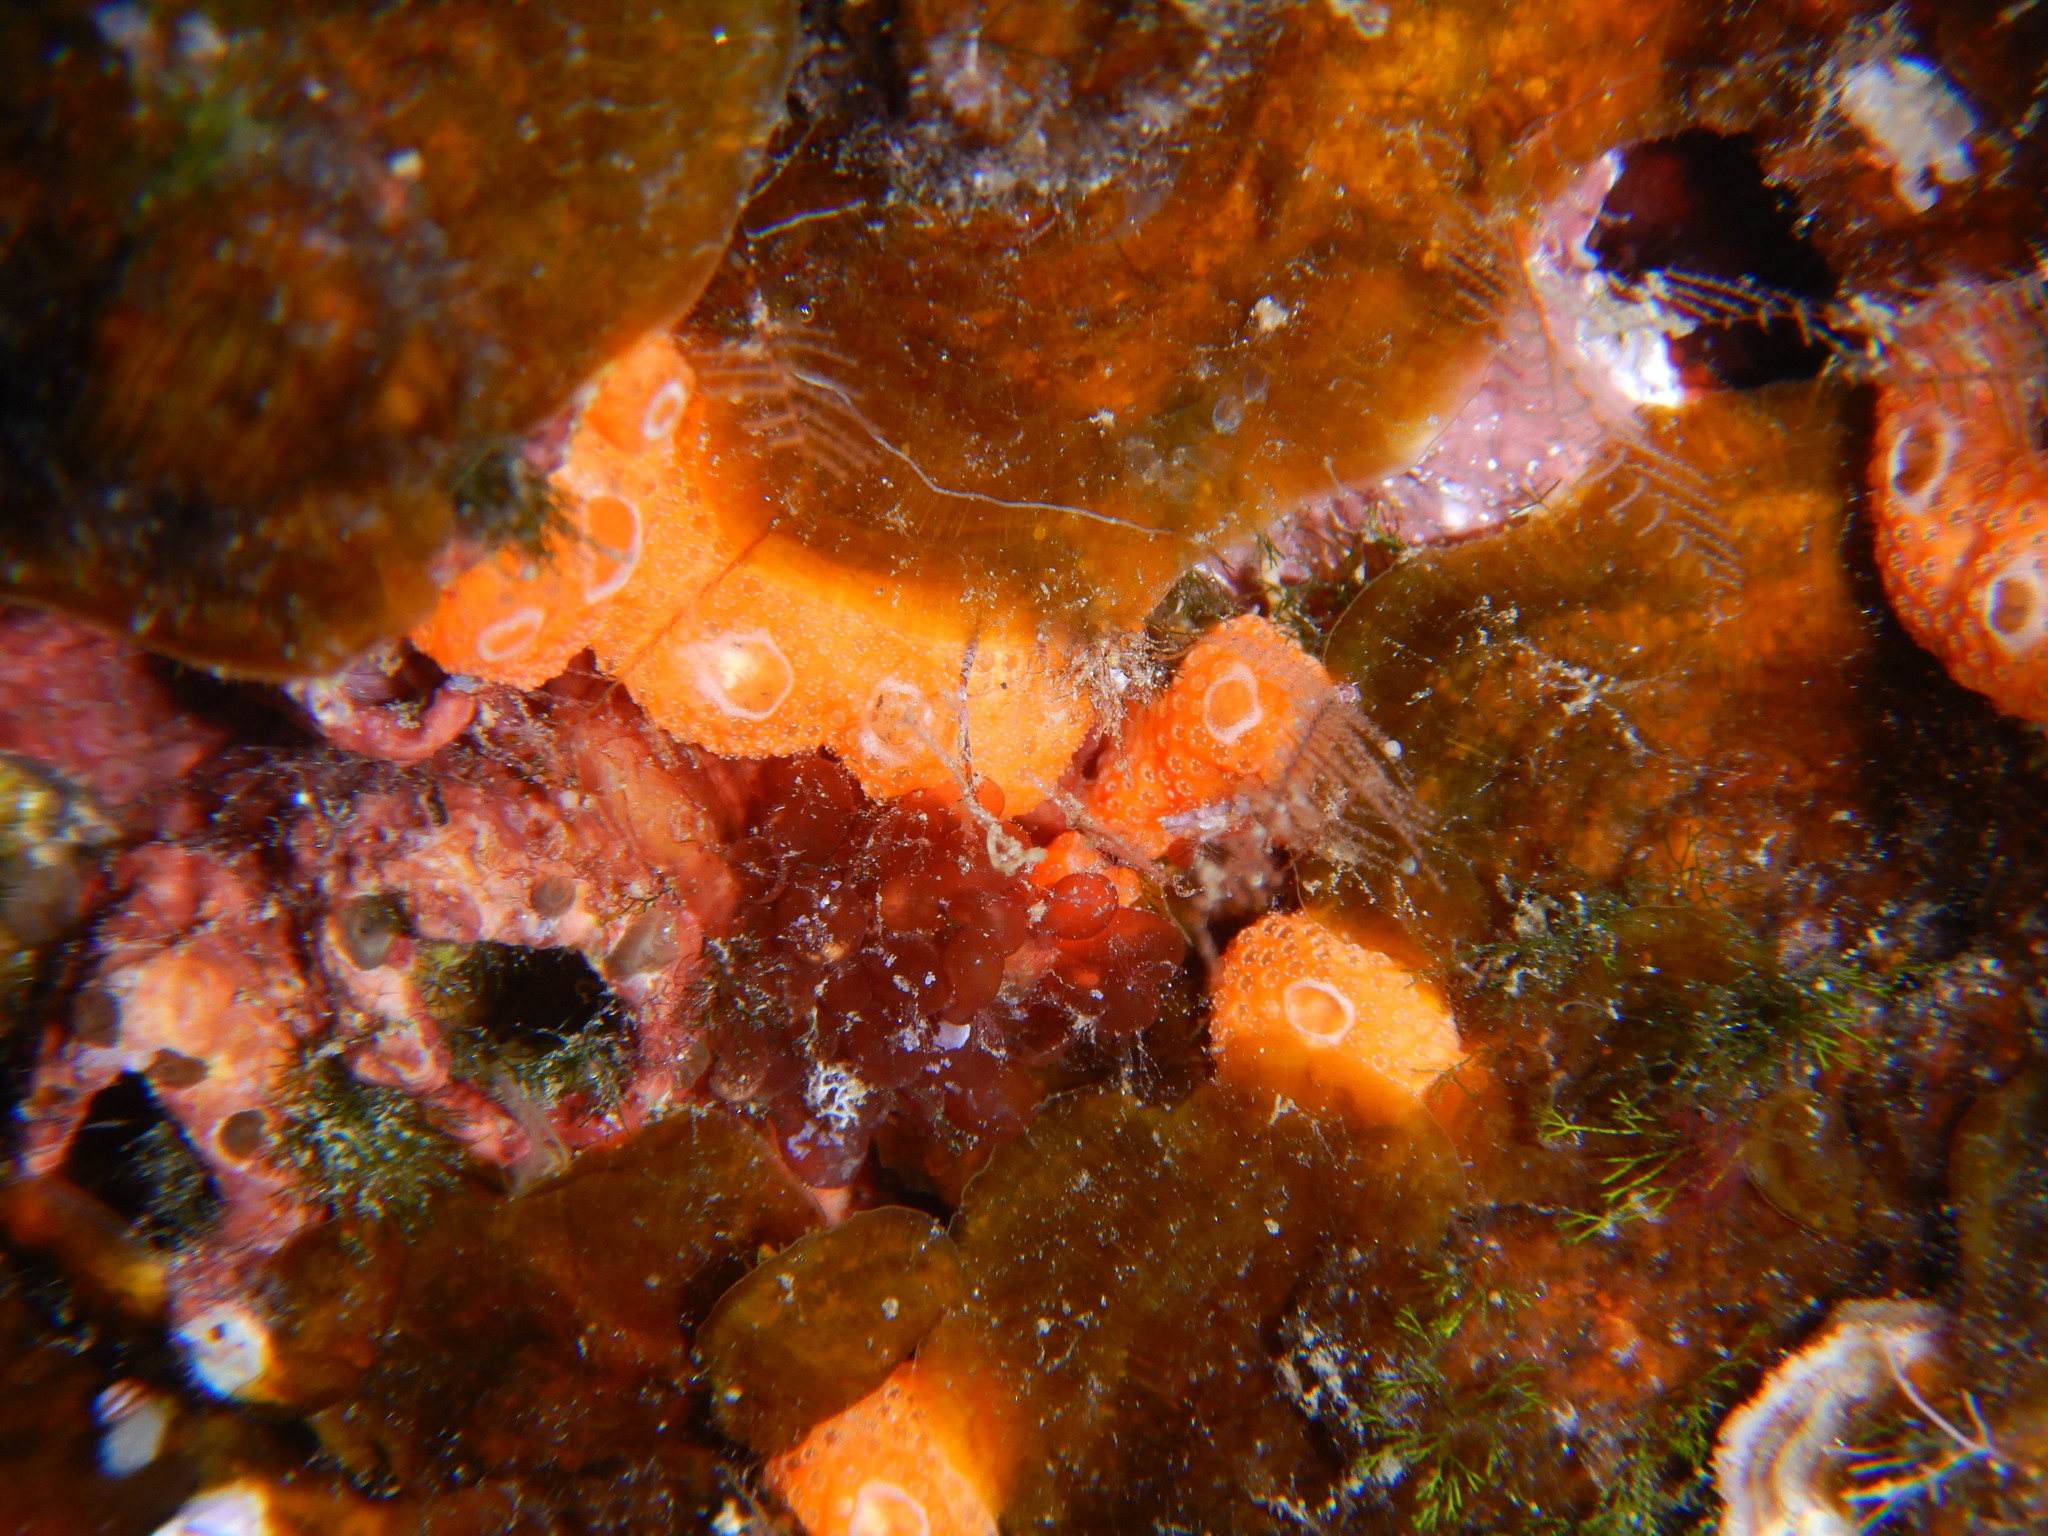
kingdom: Animalia
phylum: Chordata
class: Ascidiacea
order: Aplousobranchia
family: Didemnidae
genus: Didemnum
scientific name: Didemnum pseudofulgens
